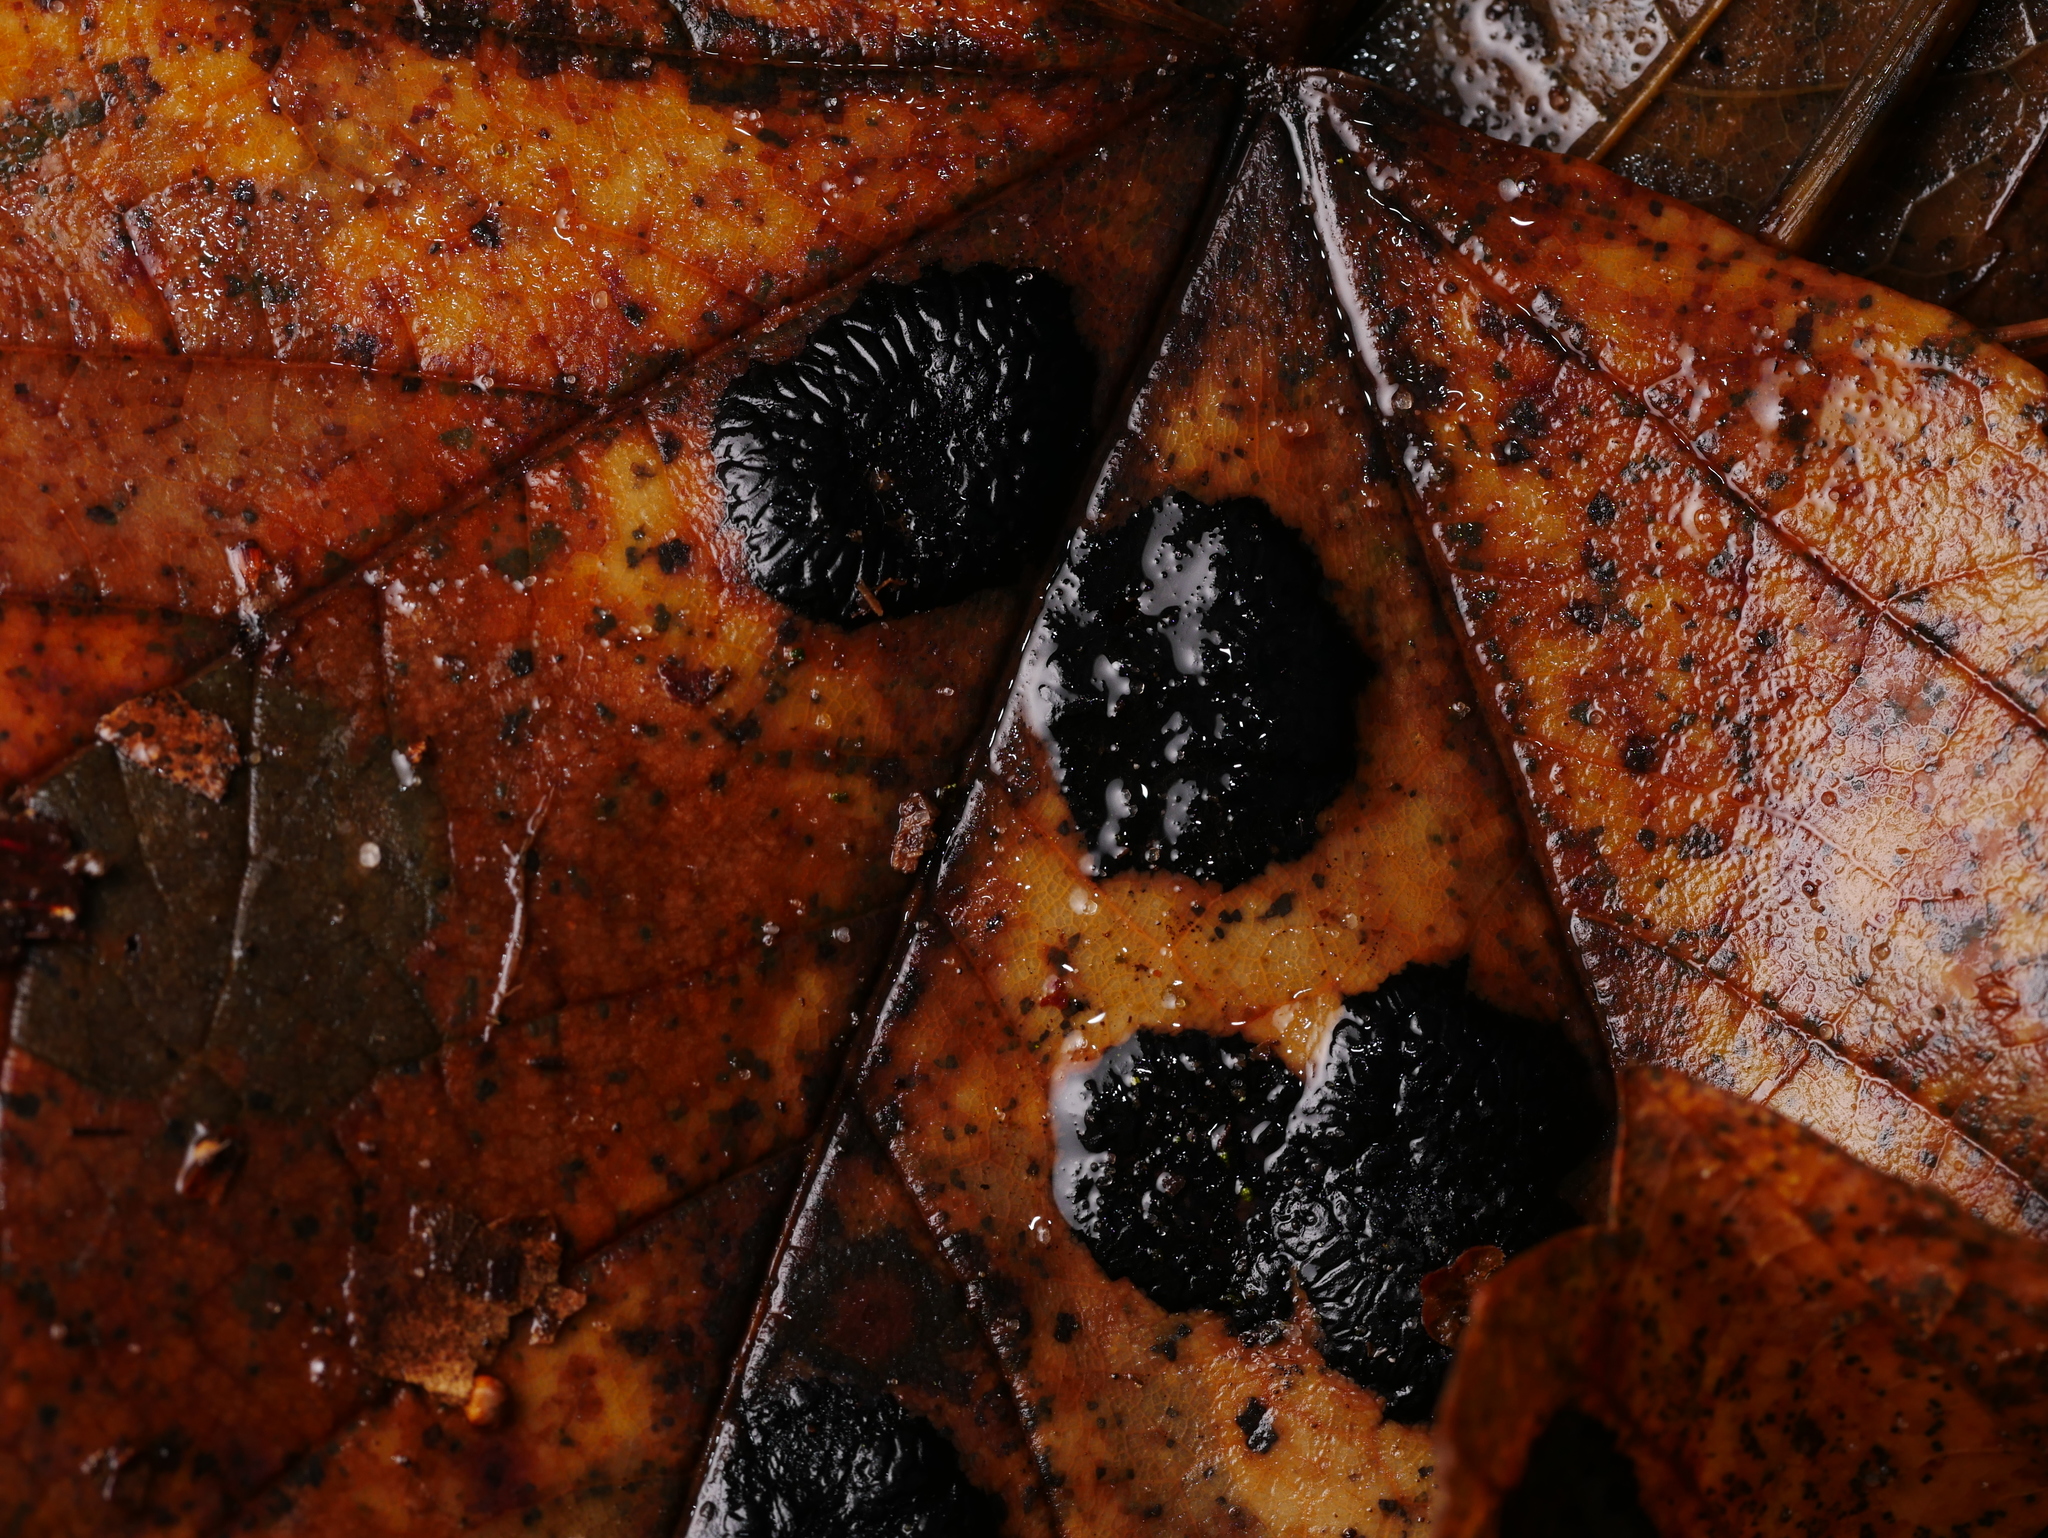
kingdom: Fungi
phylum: Ascomycota
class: Leotiomycetes
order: Rhytismatales
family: Rhytismataceae
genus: Rhytisma
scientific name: Rhytisma acerinum
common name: European tar spot
